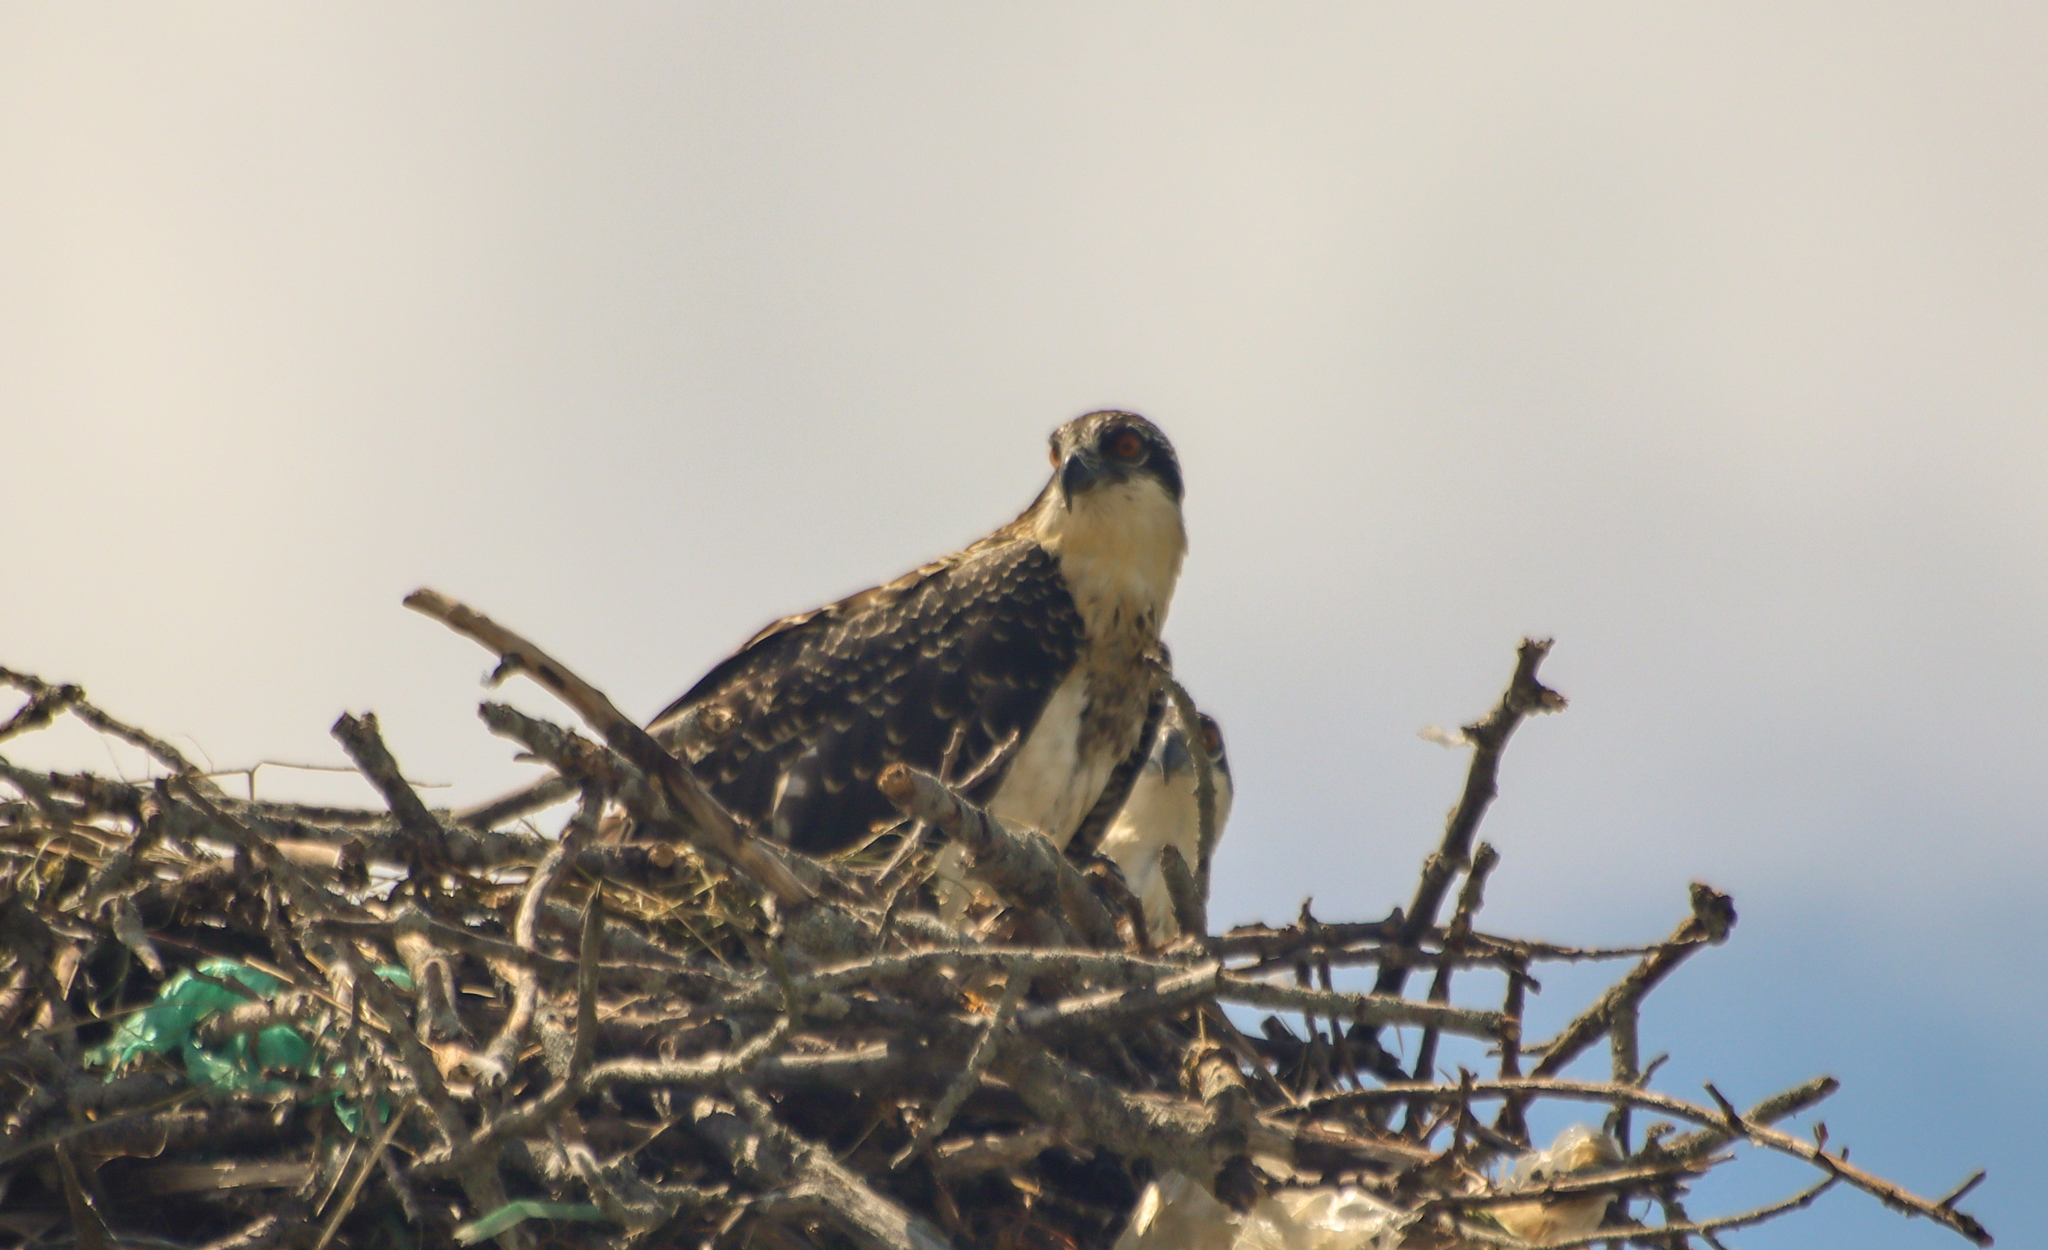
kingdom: Animalia
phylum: Chordata
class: Aves
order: Accipitriformes
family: Pandionidae
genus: Pandion
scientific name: Pandion haliaetus
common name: Osprey
